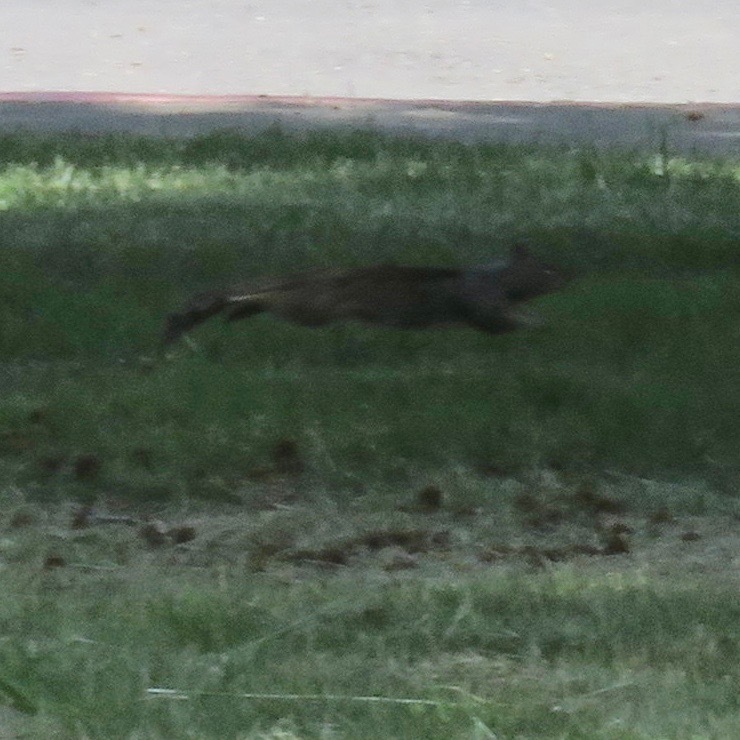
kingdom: Animalia
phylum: Chordata
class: Mammalia
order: Rodentia
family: Sciuridae
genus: Otospermophilus
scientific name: Otospermophilus beecheyi
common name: California ground squirrel
